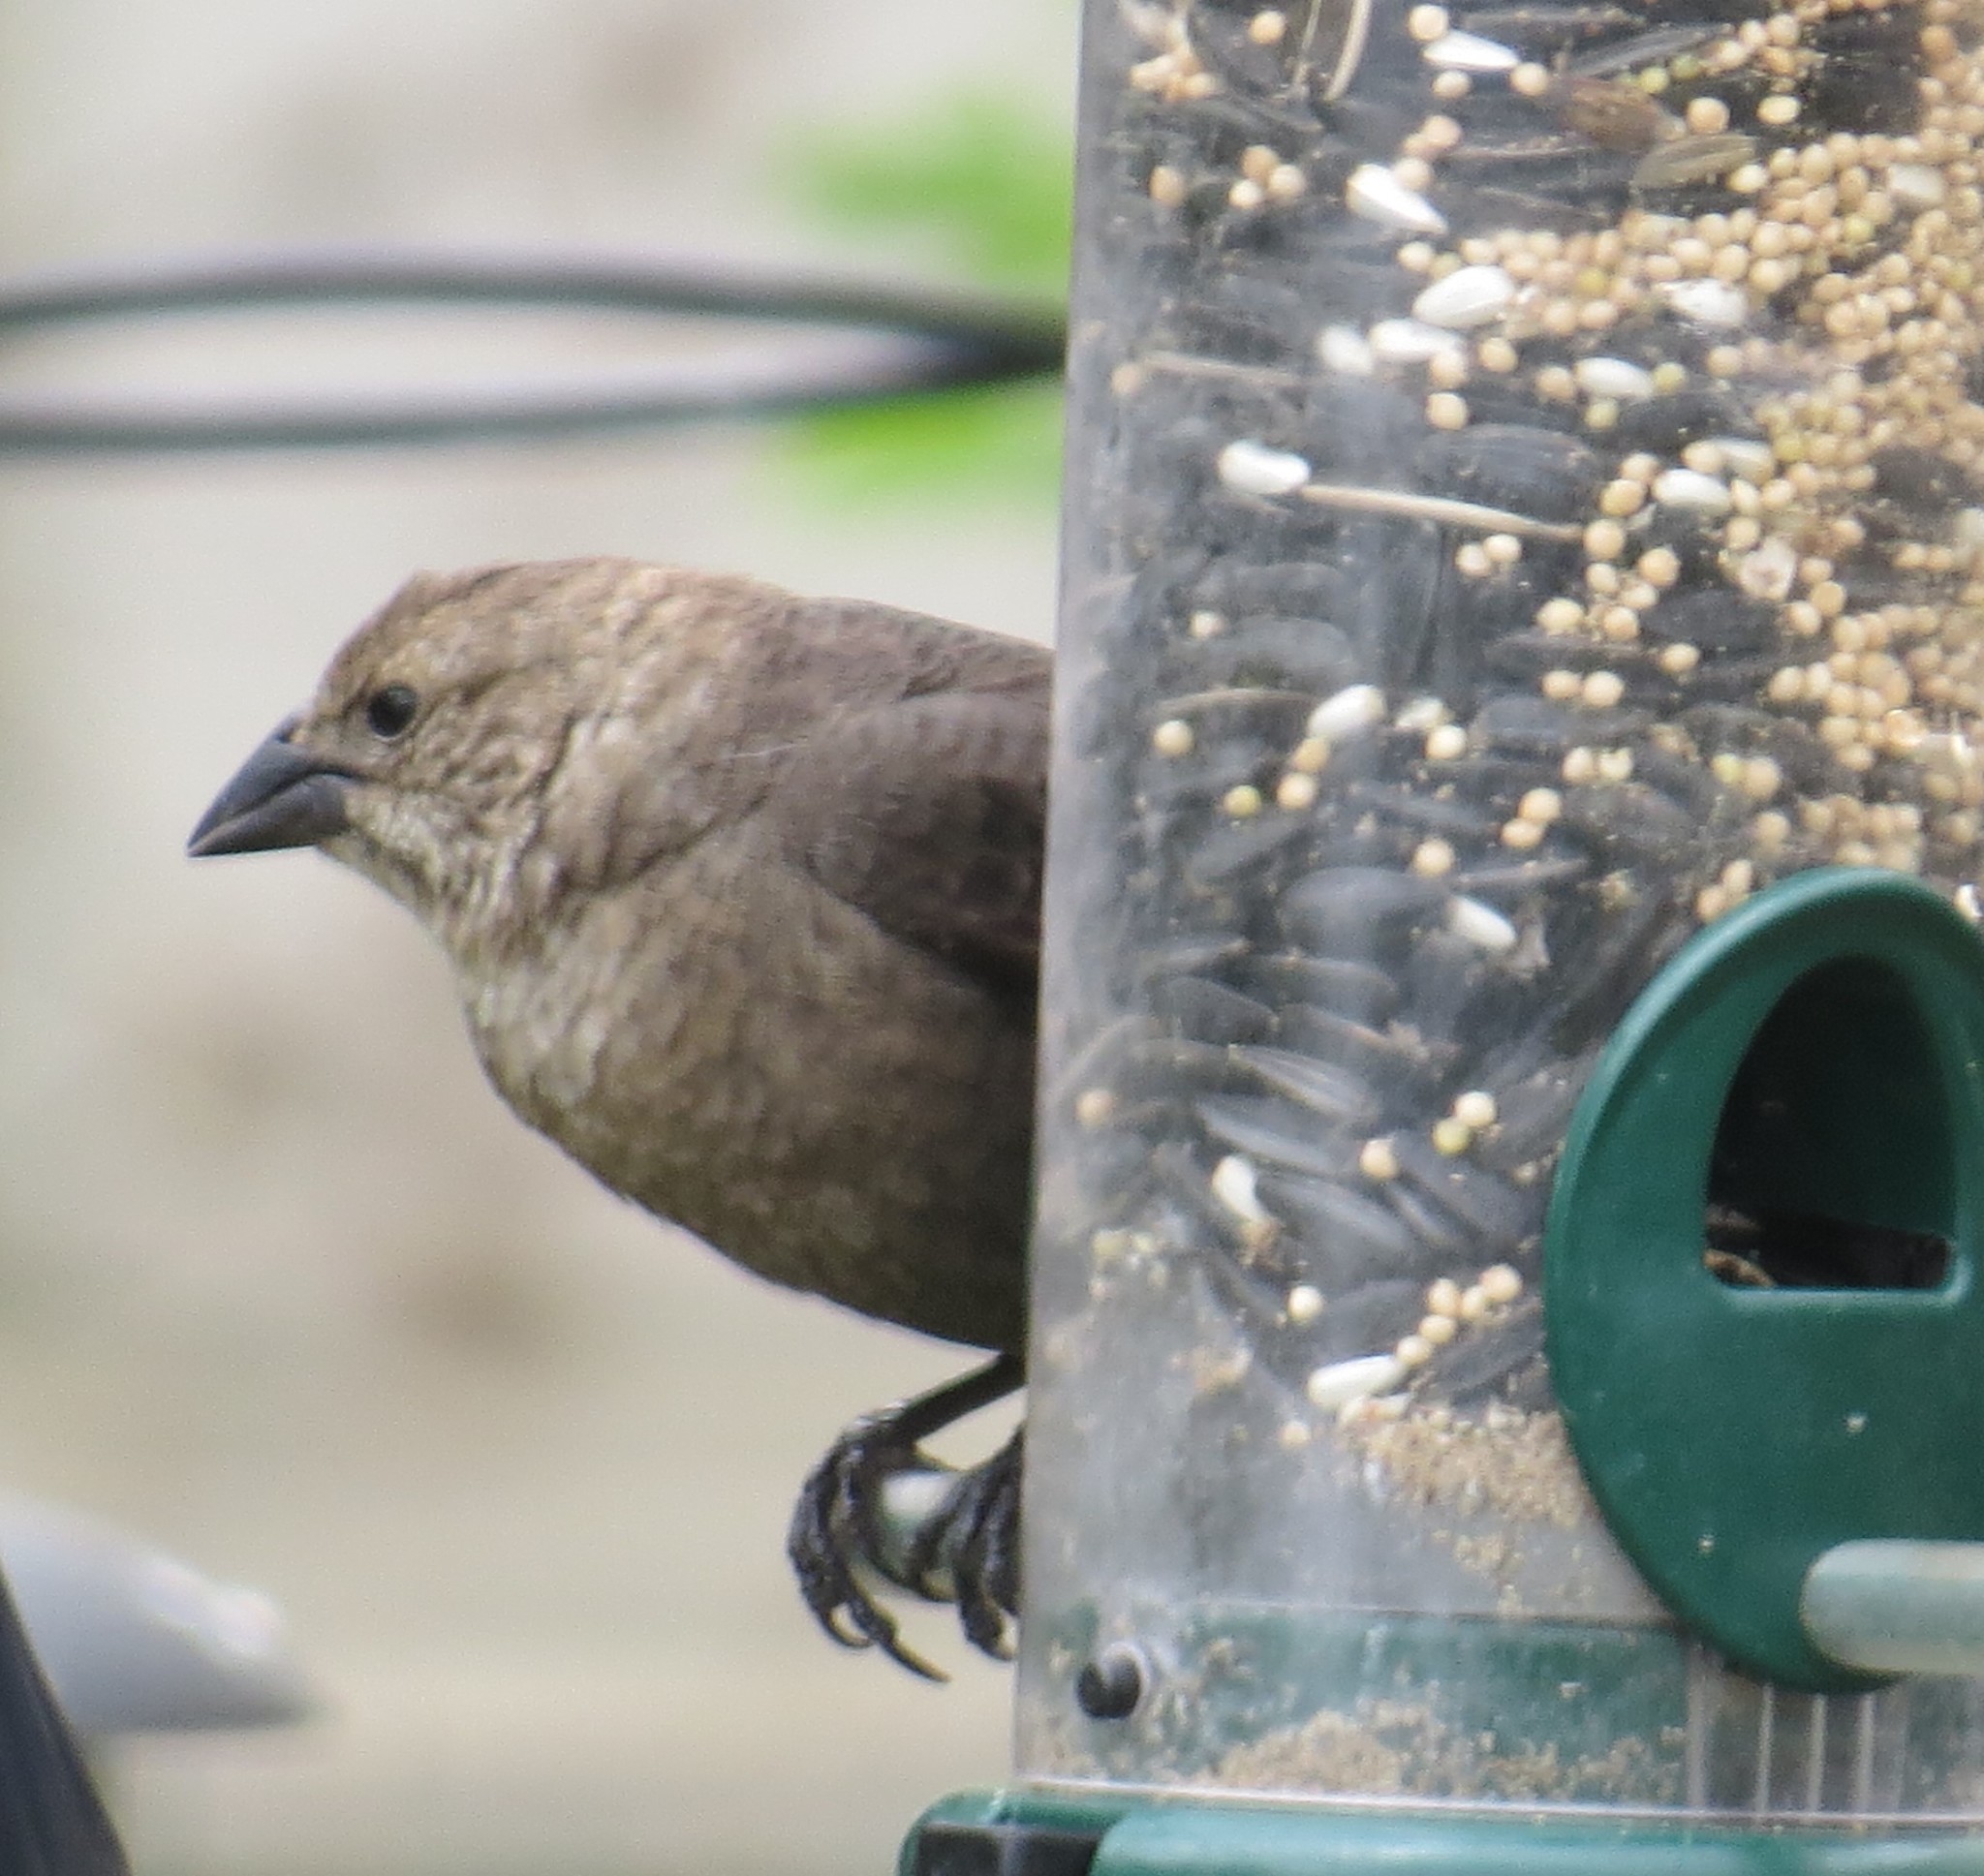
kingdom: Animalia
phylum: Chordata
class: Aves
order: Passeriformes
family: Icteridae
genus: Molothrus
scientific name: Molothrus ater
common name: Brown-headed cowbird
